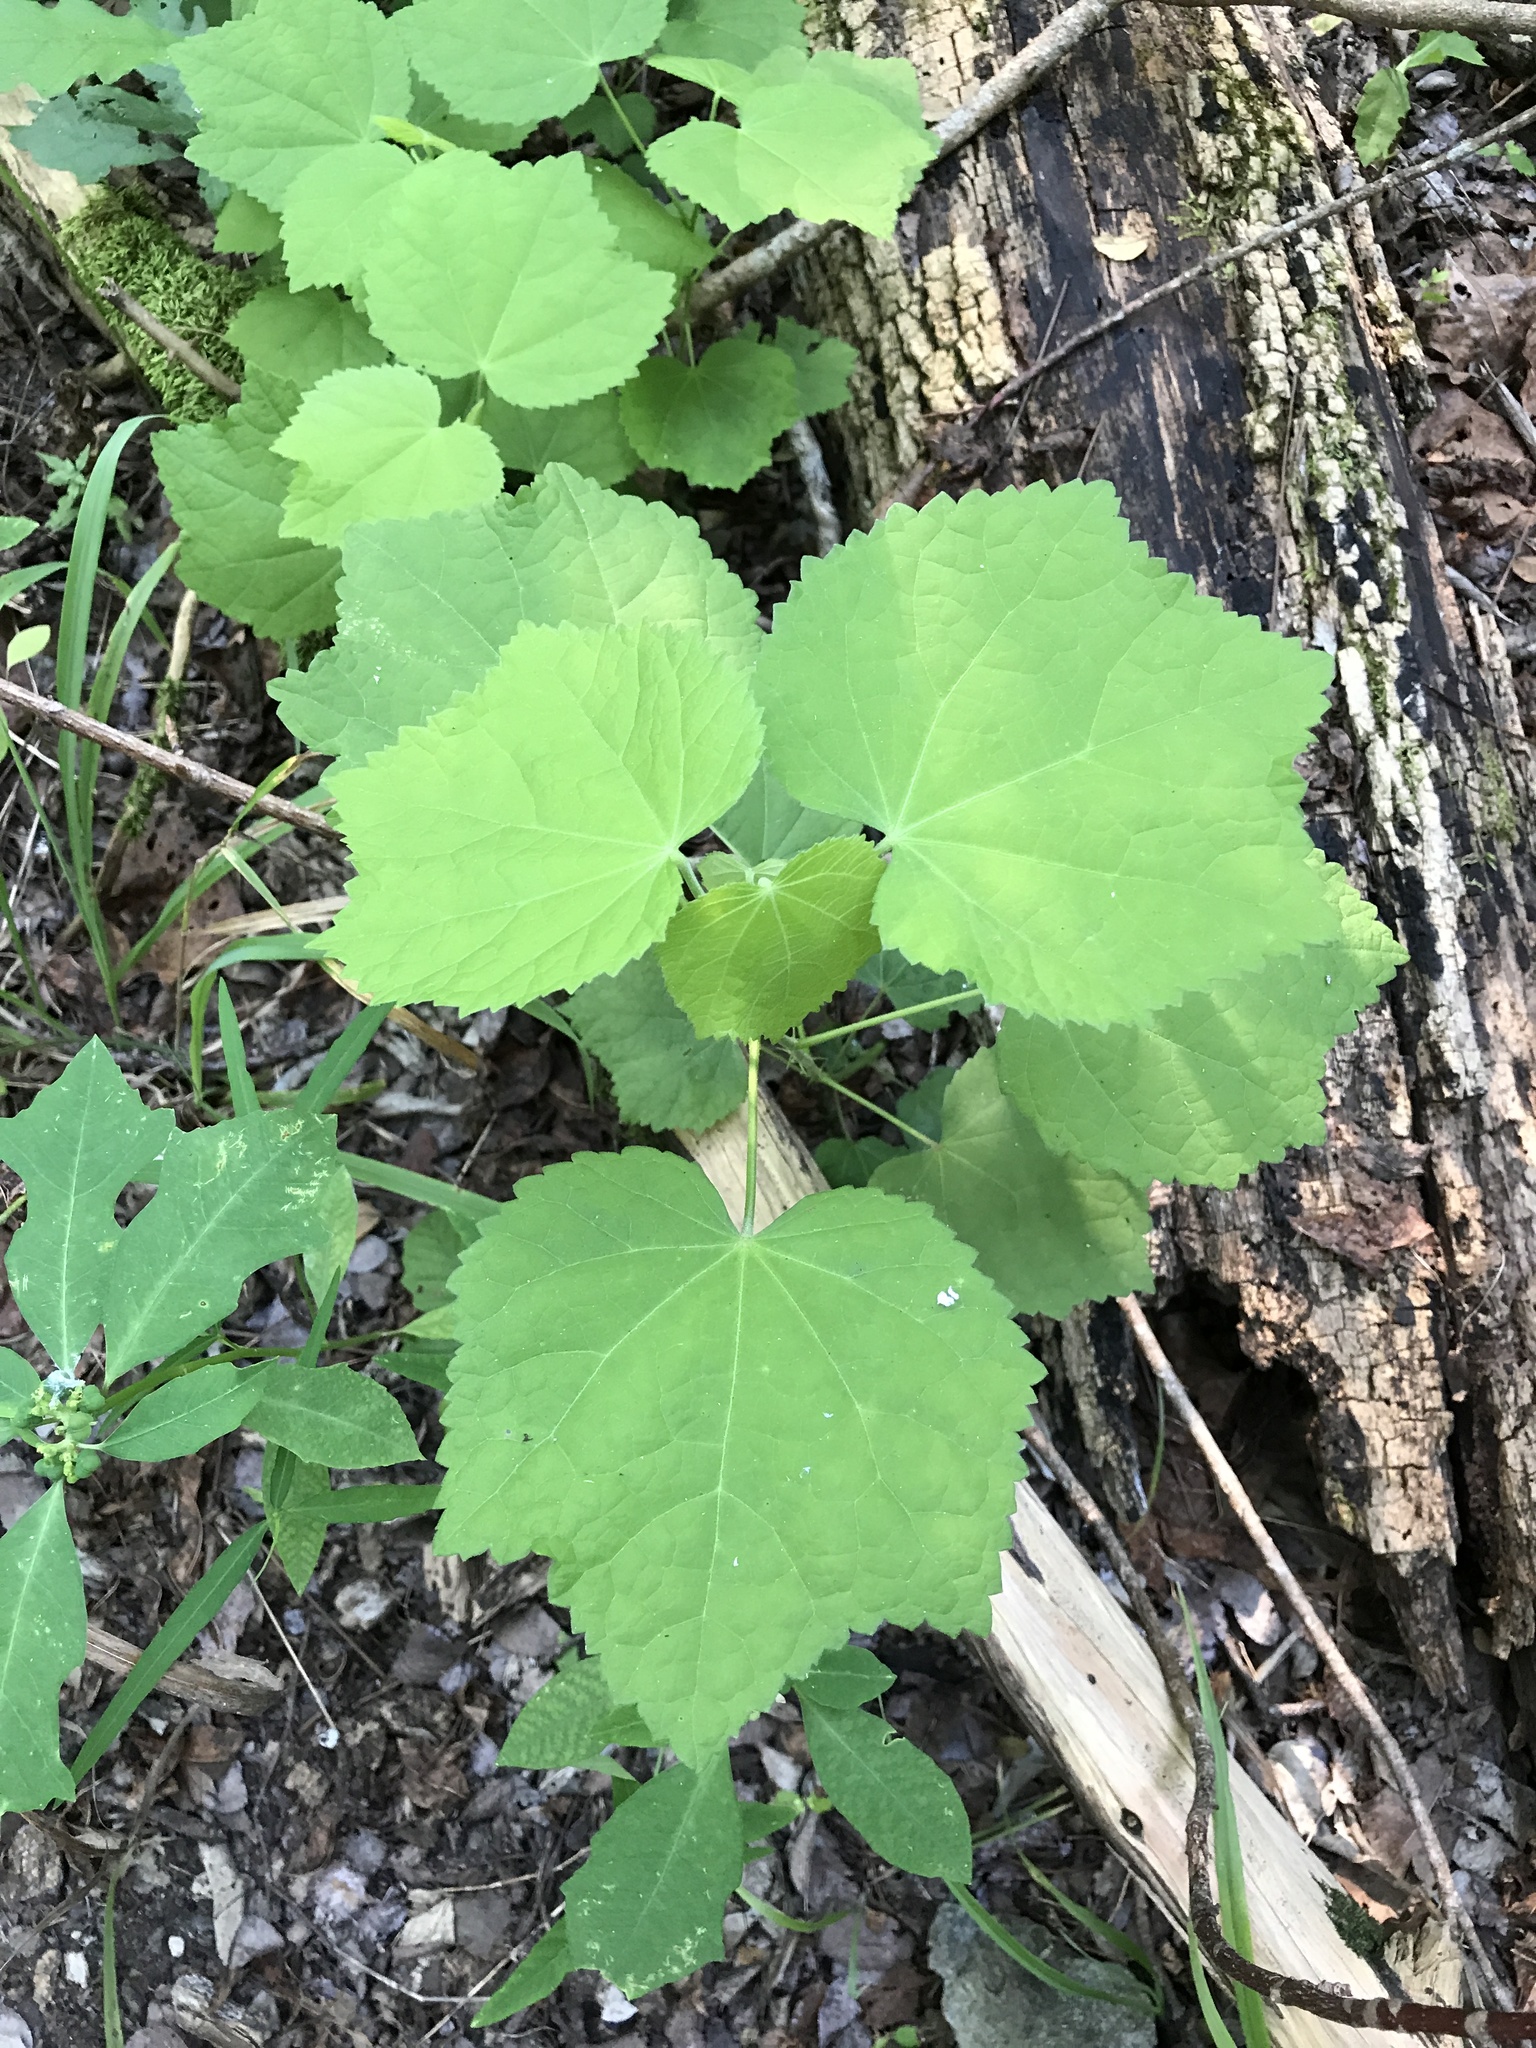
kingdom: Plantae
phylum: Tracheophyta
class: Magnoliopsida
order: Malvales
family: Malvaceae
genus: Malvaviscus
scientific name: Malvaviscus arboreus
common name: Wax mallow
